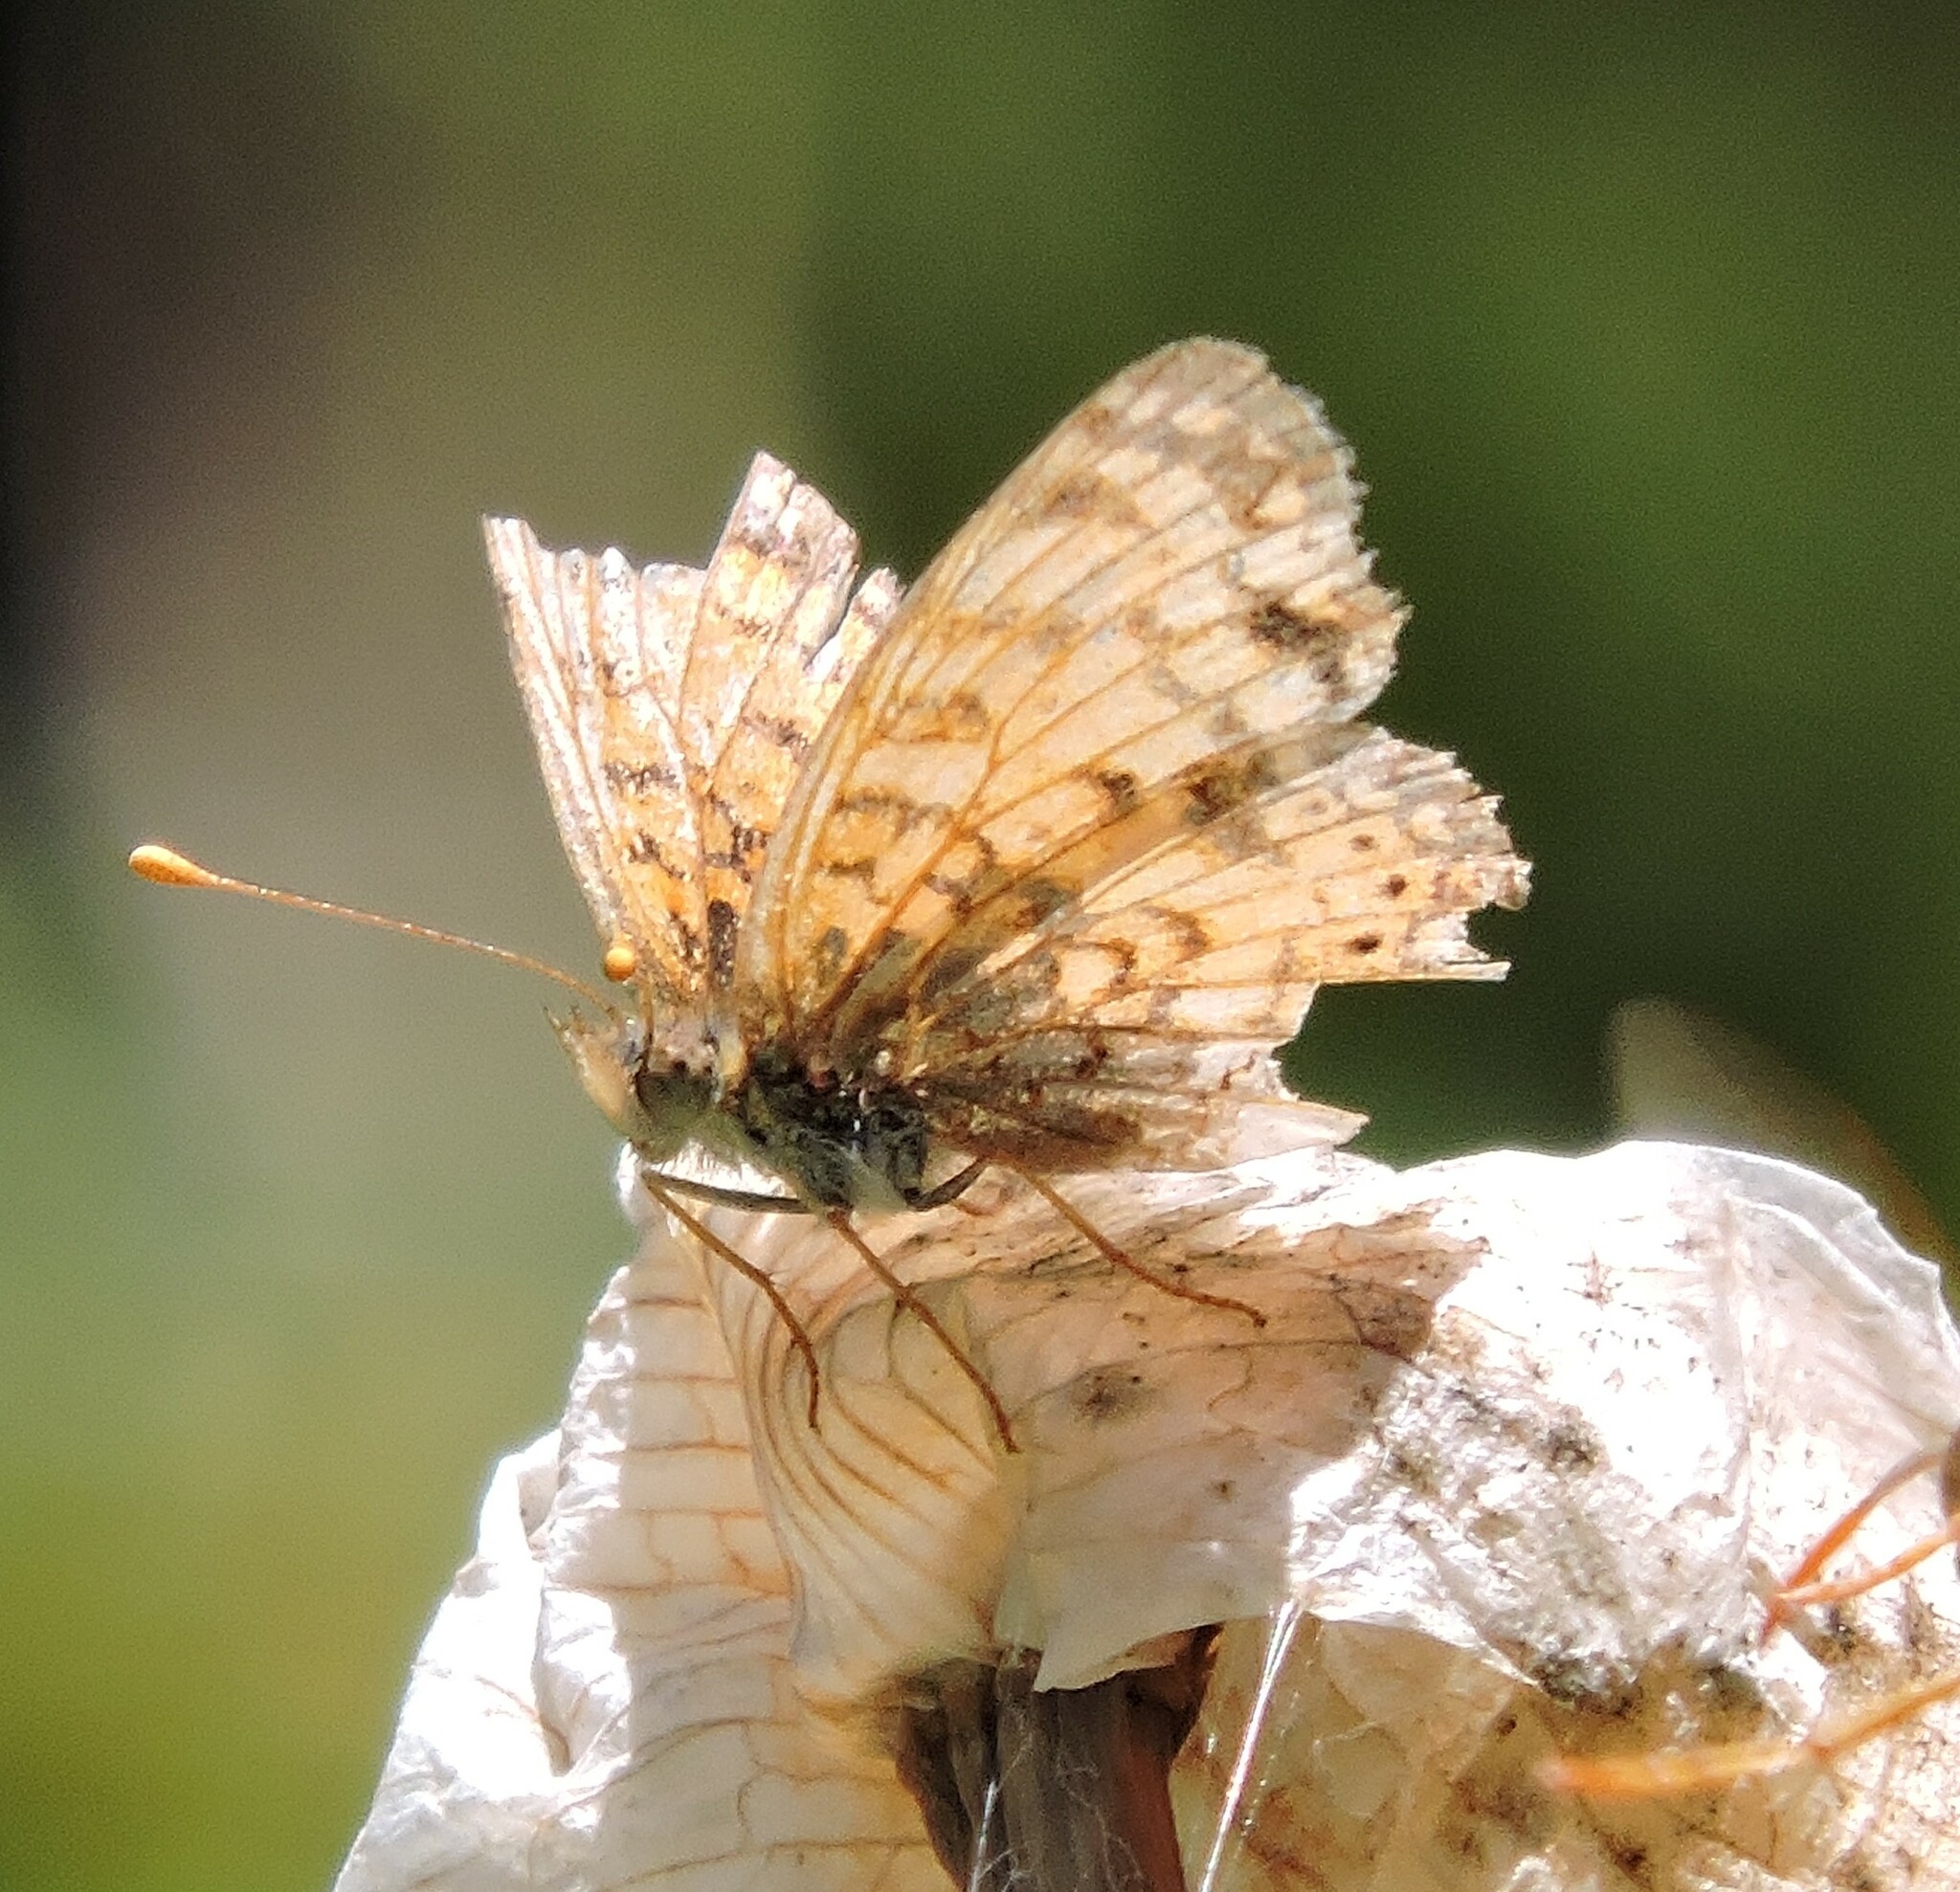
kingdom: Animalia
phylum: Arthropoda
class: Insecta
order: Lepidoptera
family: Nymphalidae
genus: Eresia
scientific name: Eresia aveyrona
